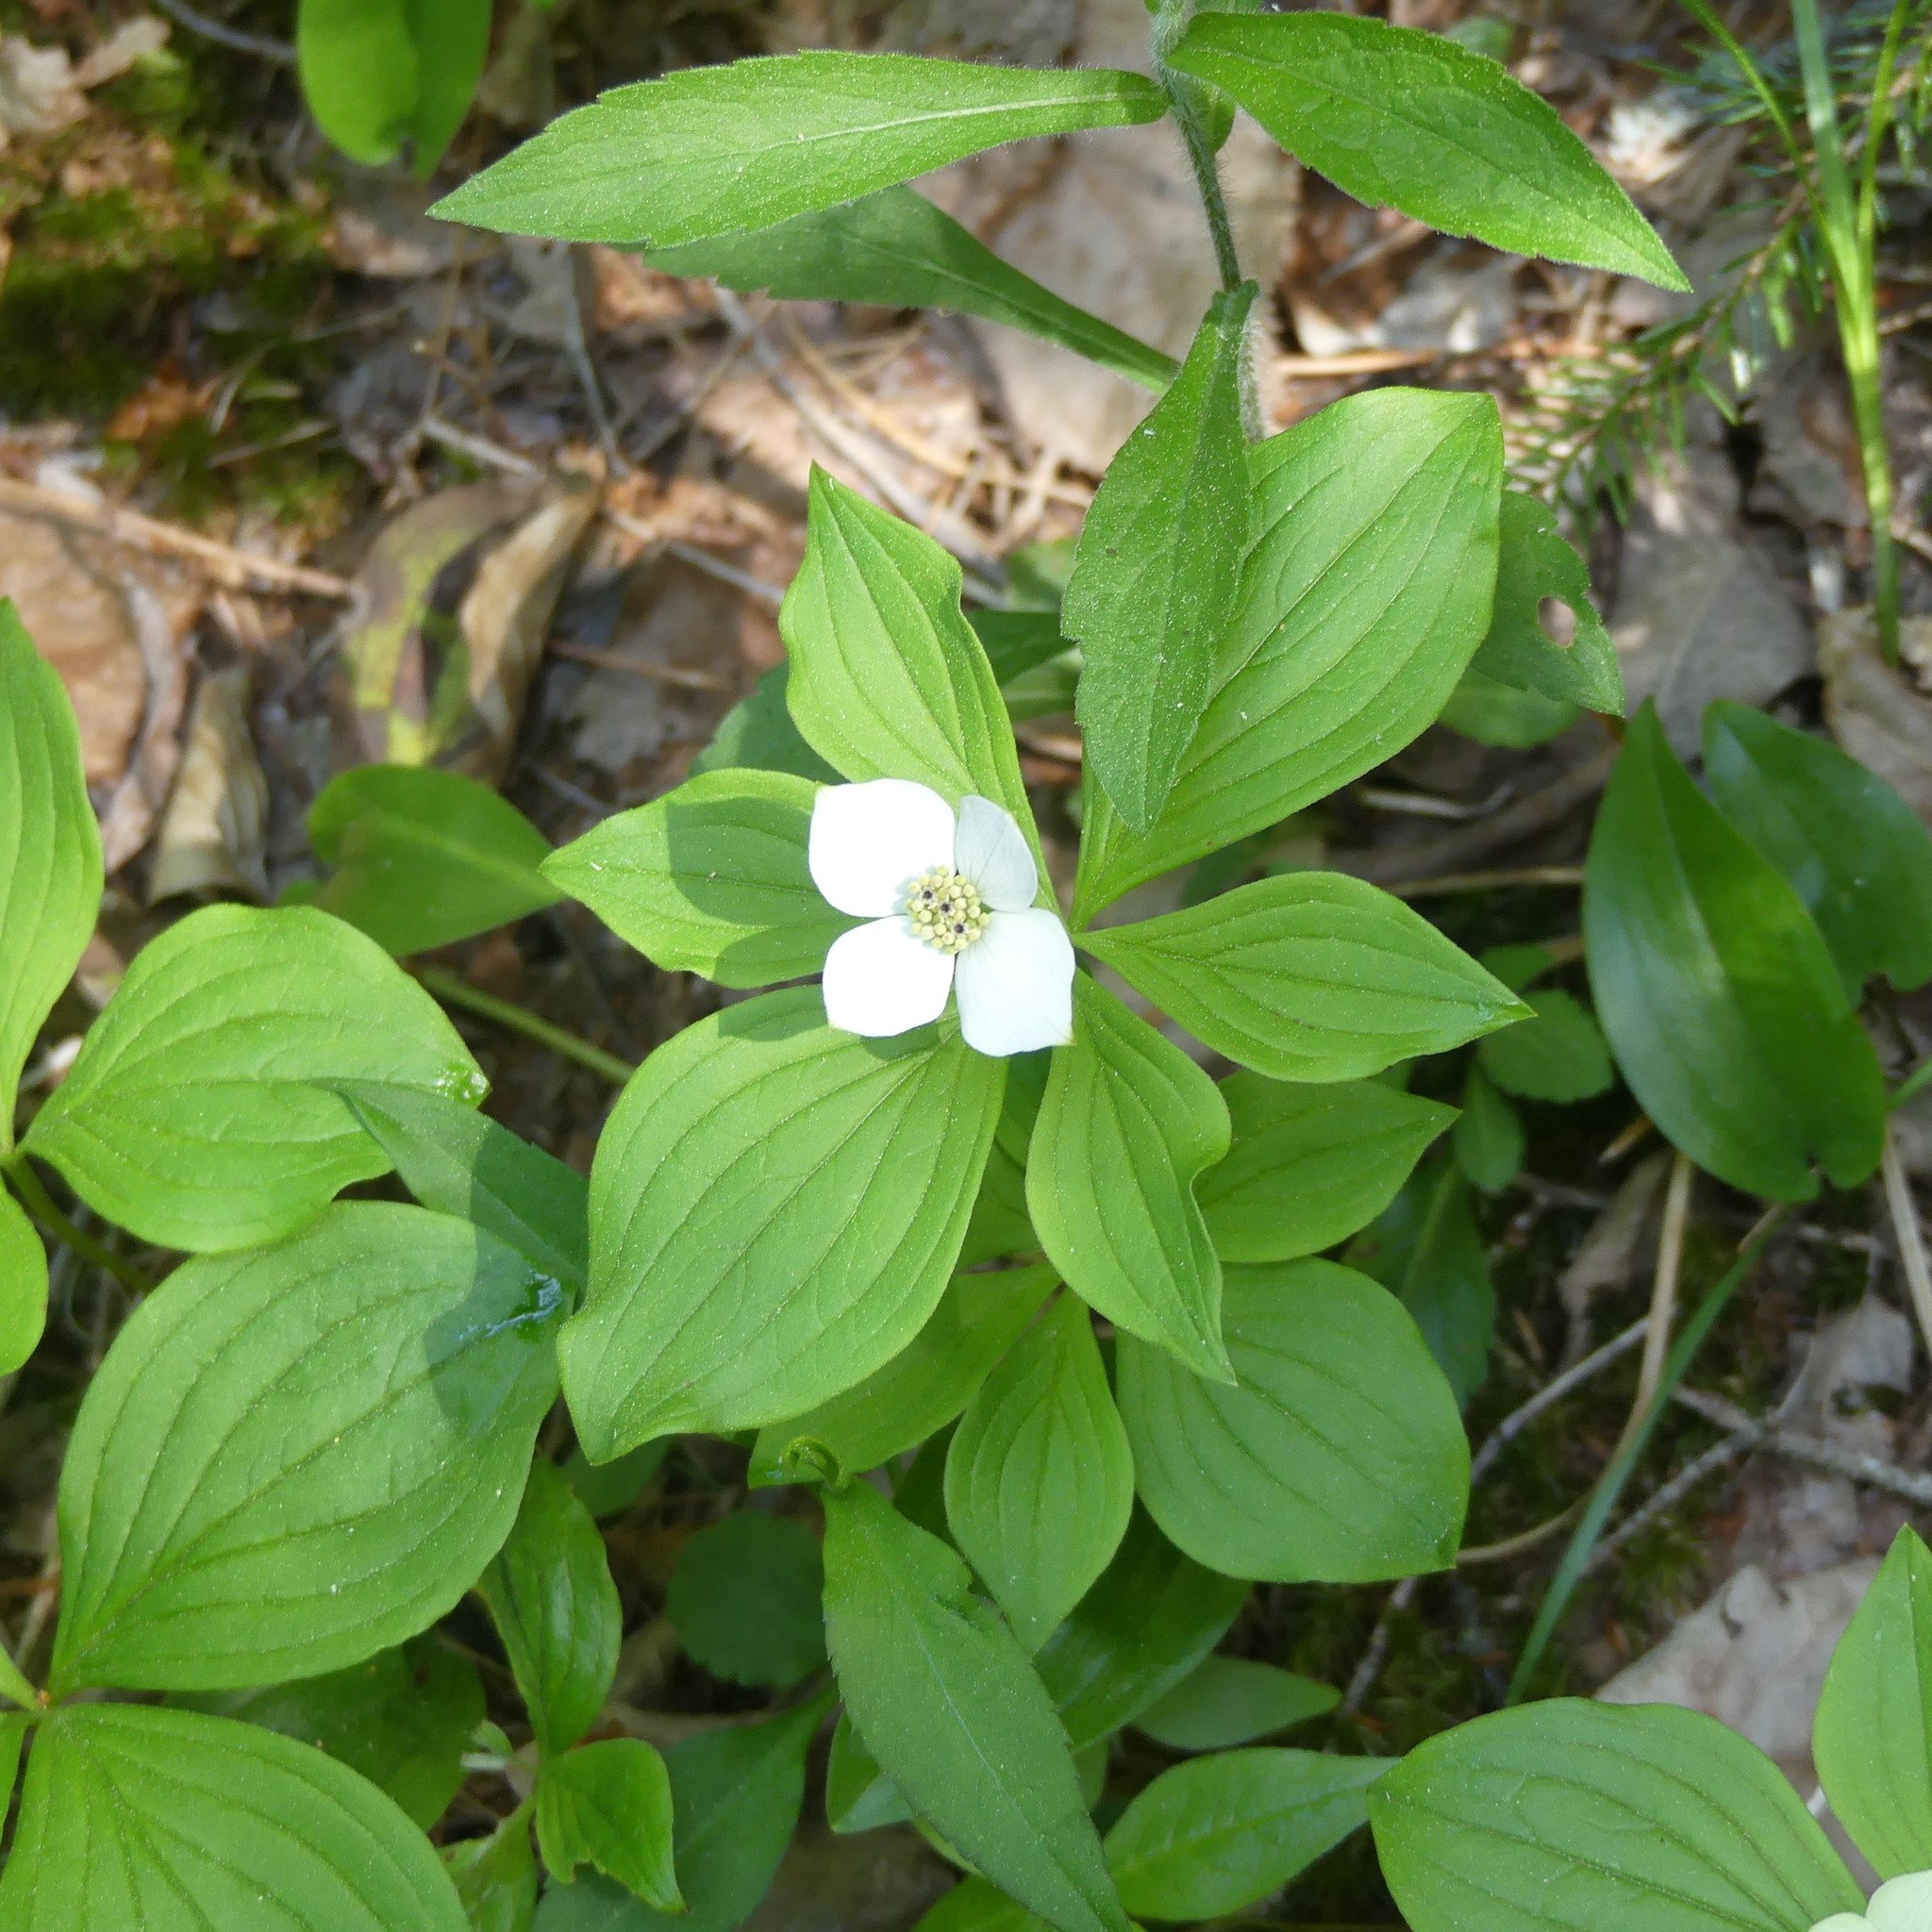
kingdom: Plantae
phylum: Tracheophyta
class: Magnoliopsida
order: Cornales
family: Cornaceae
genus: Cornus
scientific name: Cornus canadensis
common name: Creeping dogwood
